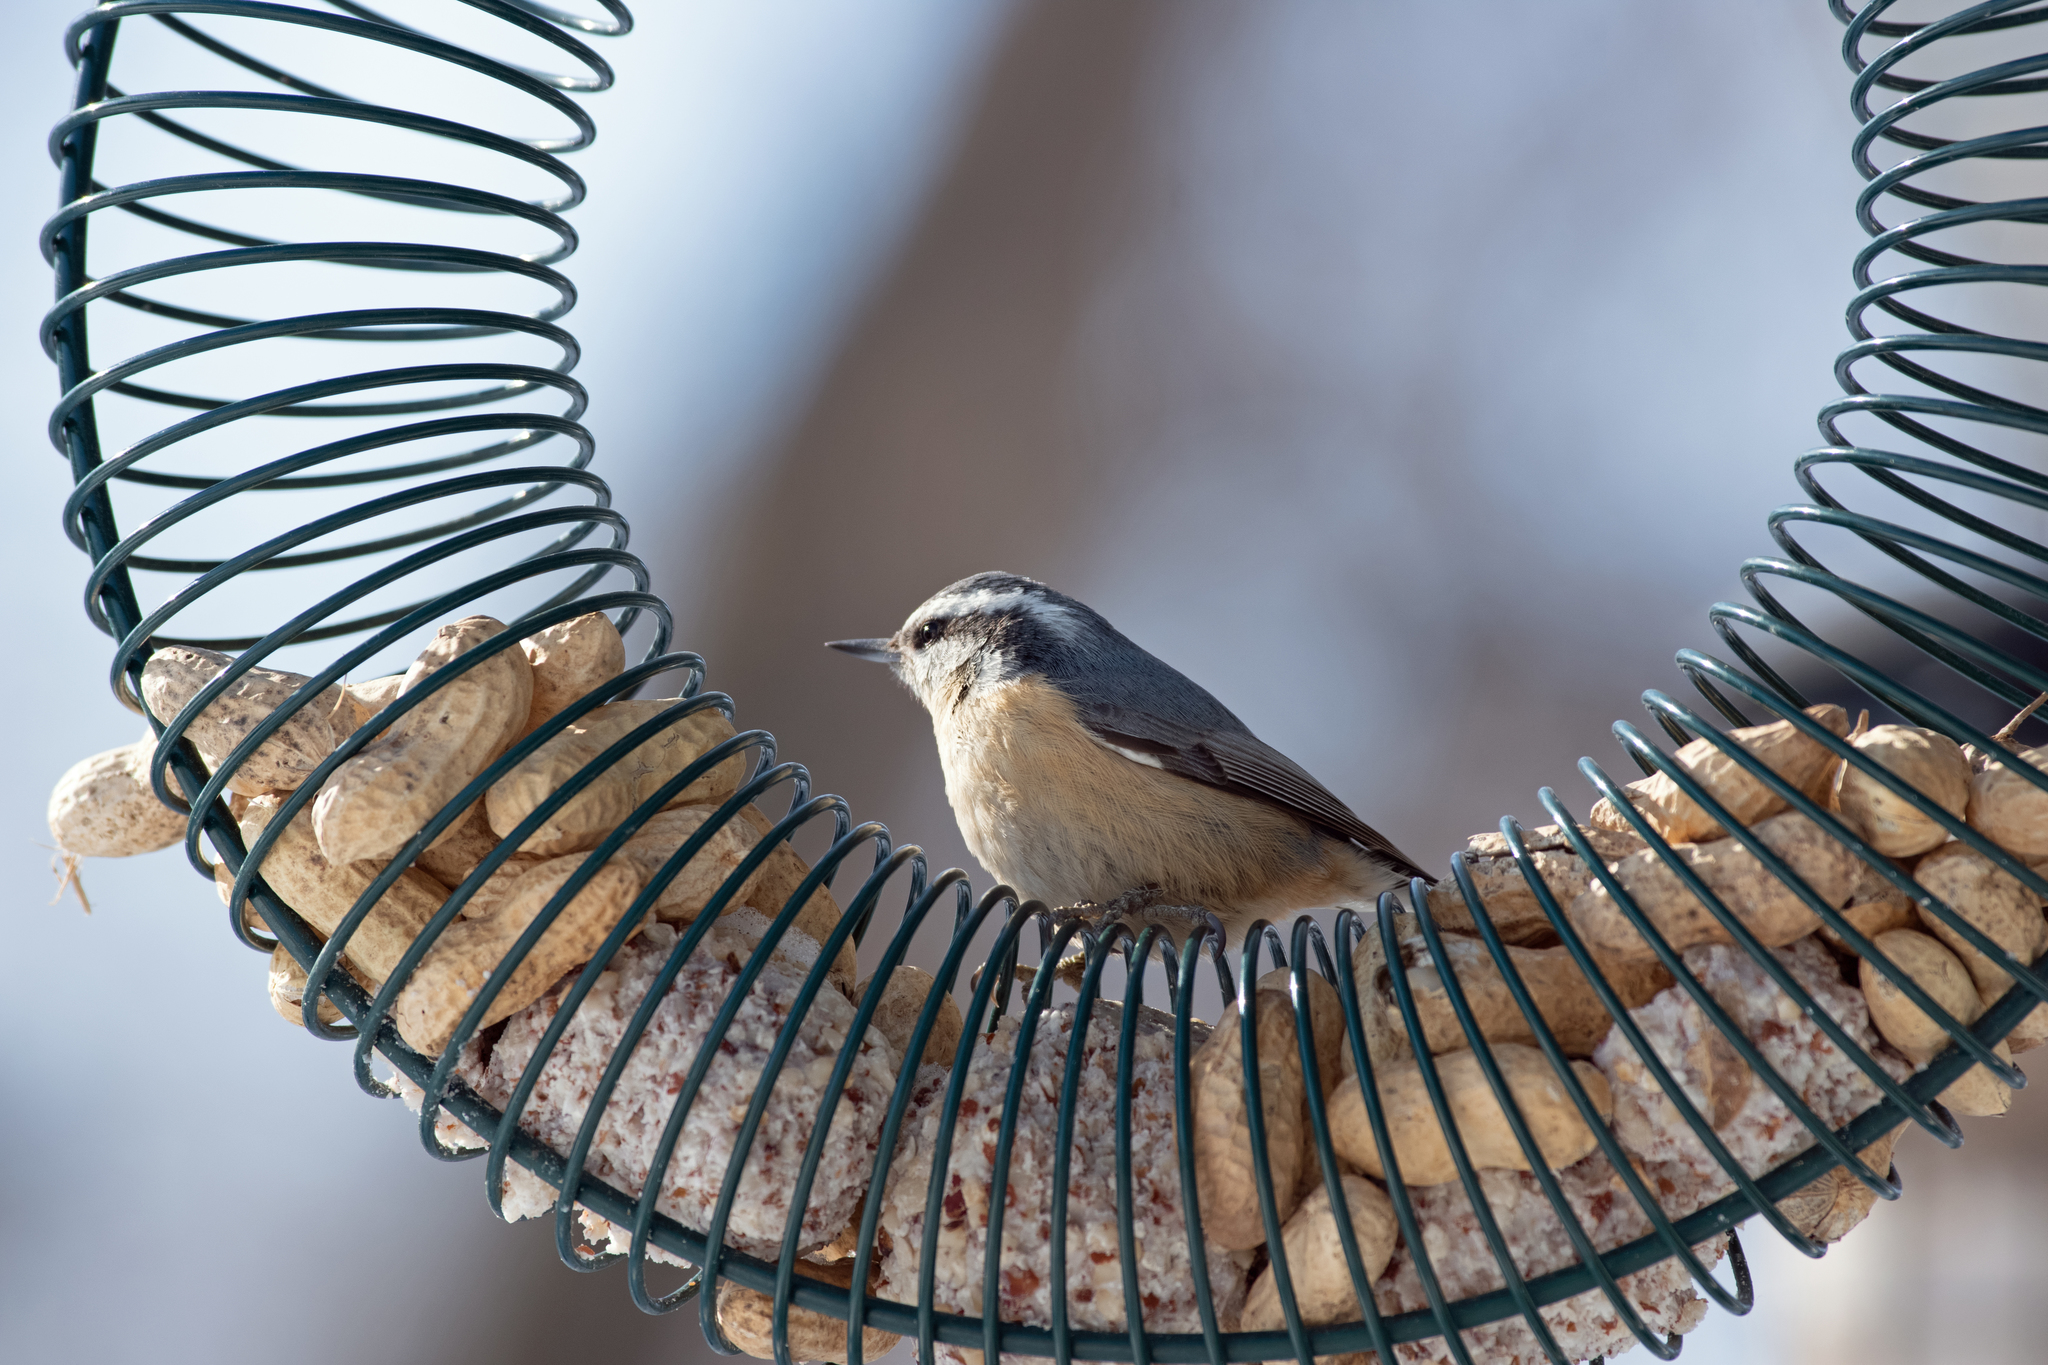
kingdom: Animalia
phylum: Chordata
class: Aves
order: Passeriformes
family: Sittidae
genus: Sitta
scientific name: Sitta canadensis
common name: Red-breasted nuthatch
